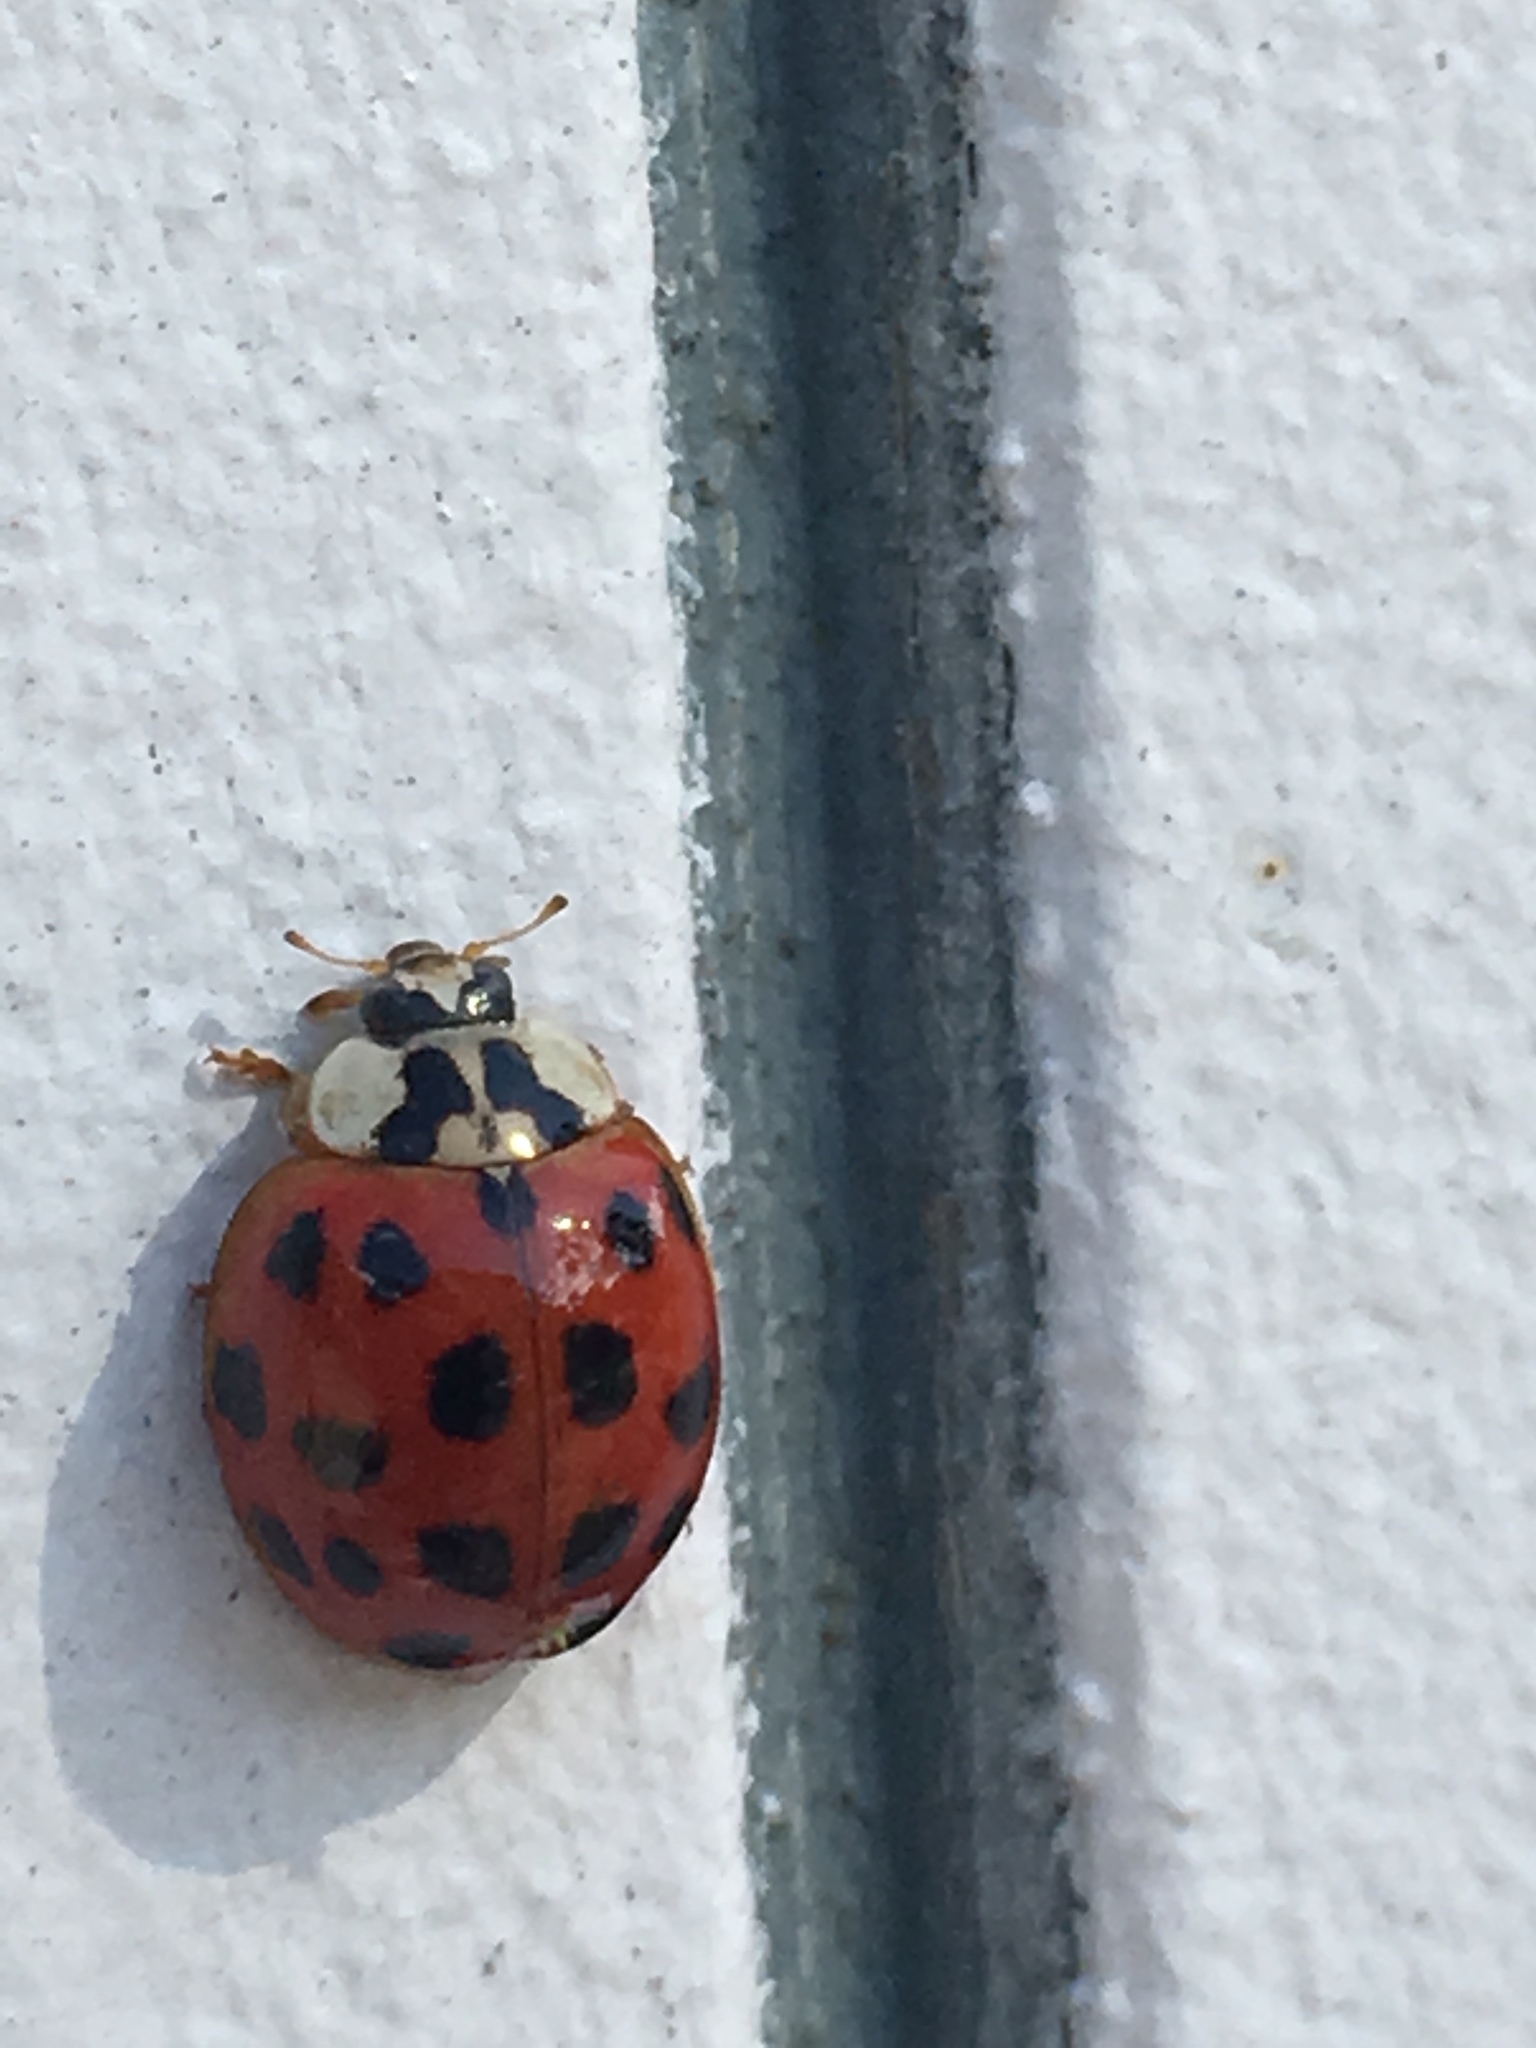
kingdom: Animalia
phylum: Arthropoda
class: Insecta
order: Coleoptera
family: Coccinellidae
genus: Harmonia
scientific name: Harmonia axyridis
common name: Harlequin ladybird
